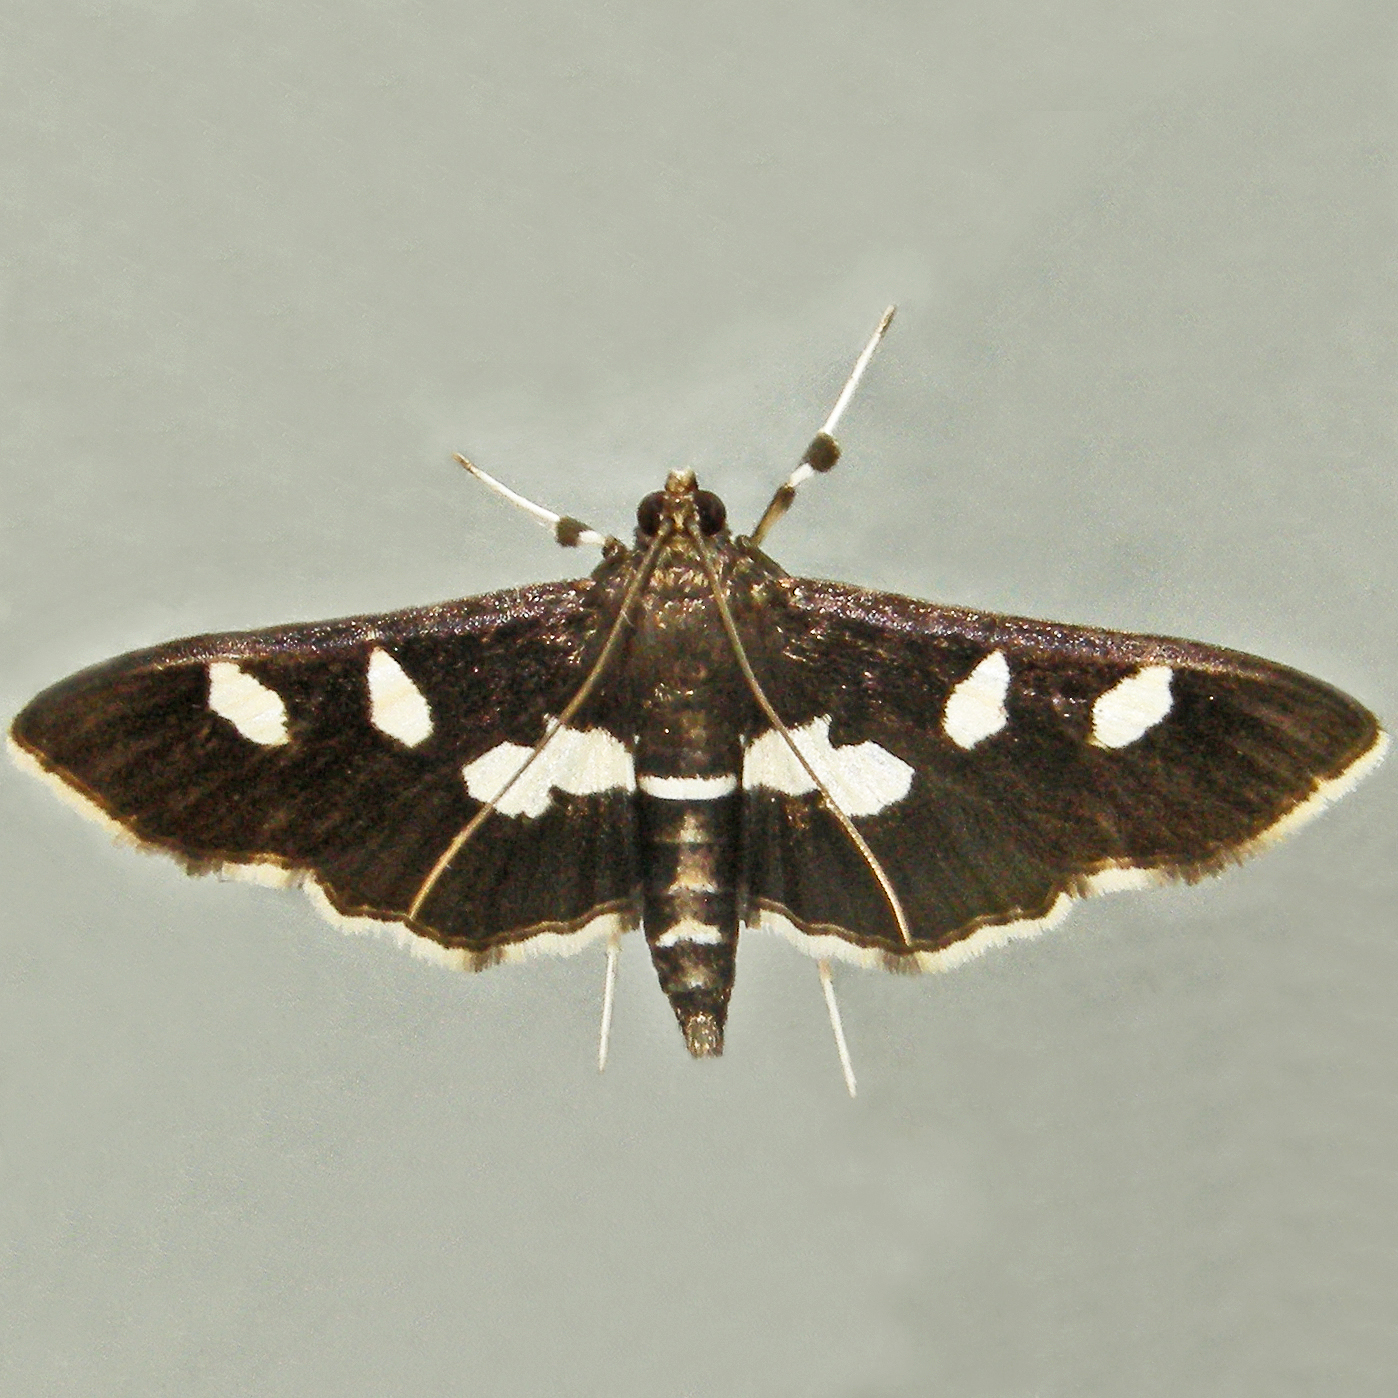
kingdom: Animalia
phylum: Arthropoda
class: Insecta
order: Lepidoptera
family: Crambidae
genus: Desmia
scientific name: Desmia funeralis
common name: Grape leaf folder moth
